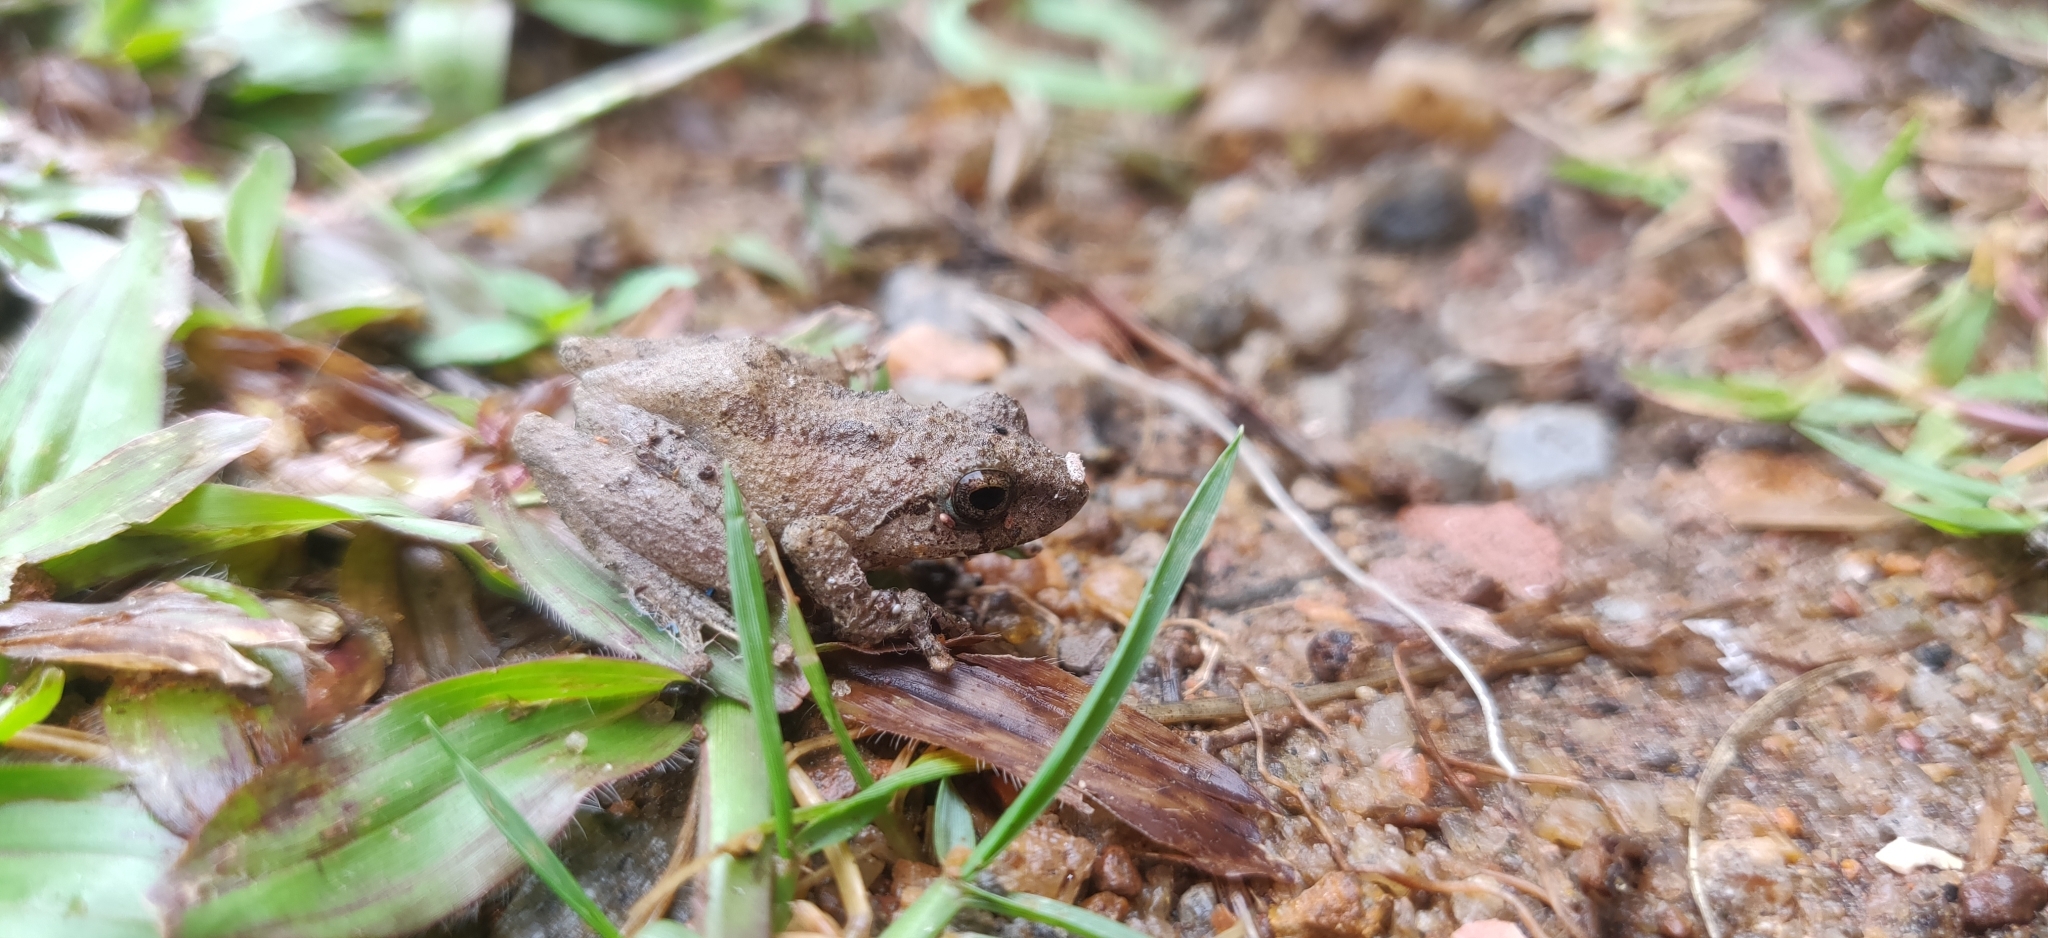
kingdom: Animalia
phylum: Chordata
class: Amphibia
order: Anura
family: Rhacophoridae
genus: Pseudophilautus
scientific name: Pseudophilautus wynaadensis
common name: Dark-eared bush frog
